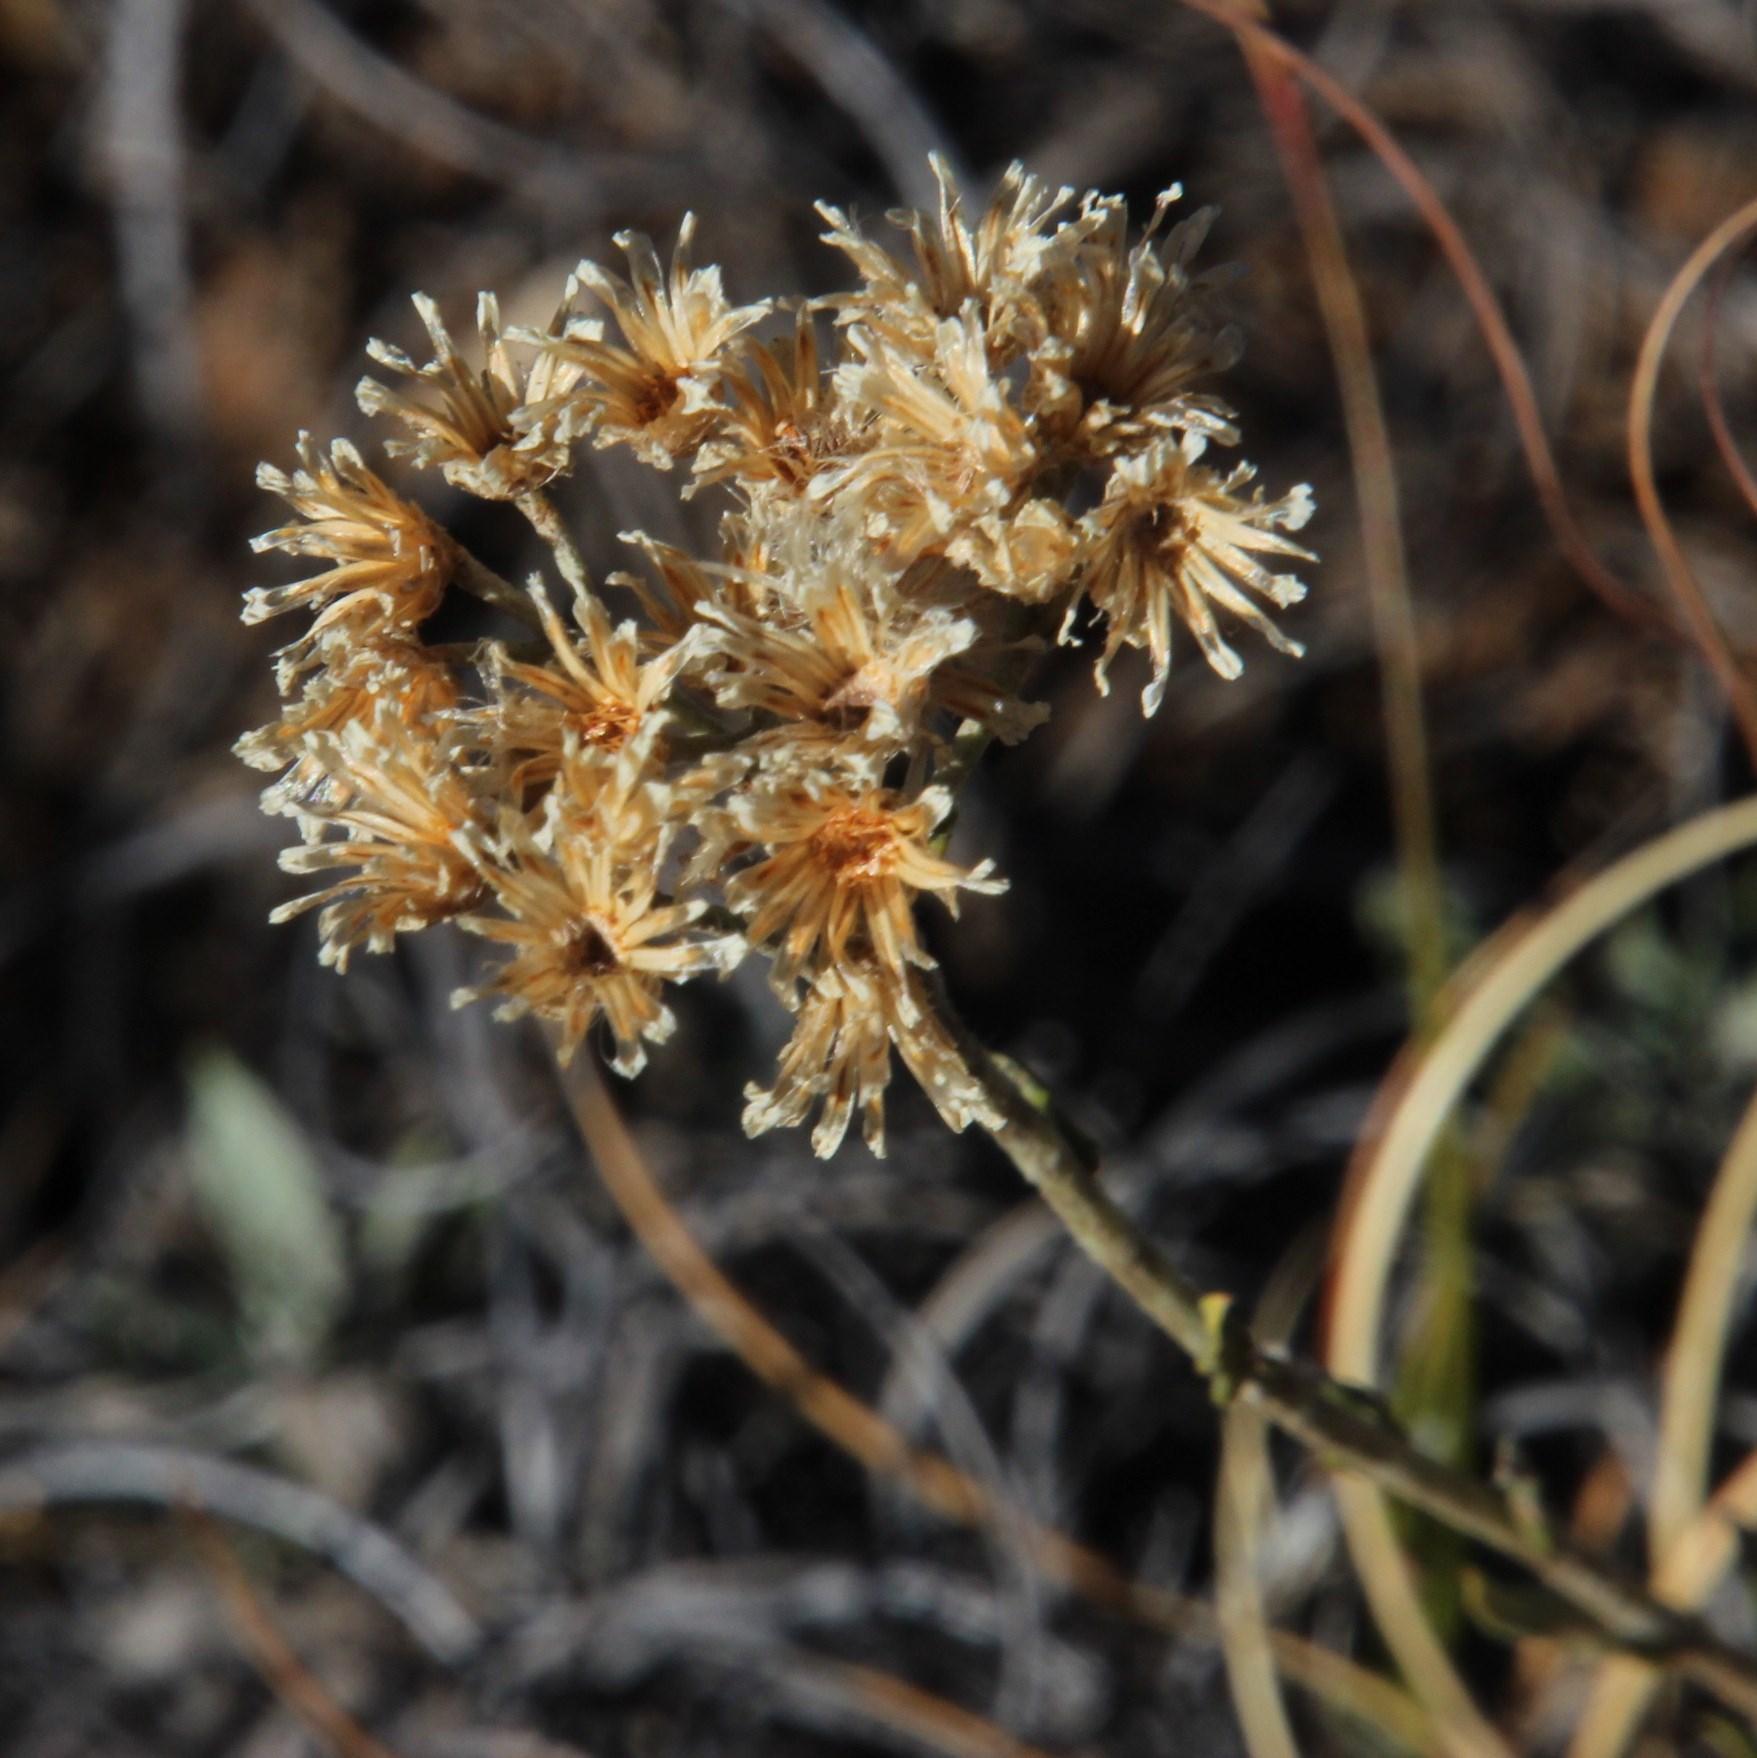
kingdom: Plantae
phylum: Tracheophyta
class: Magnoliopsida
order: Asterales
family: Asteraceae
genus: Helichrysum
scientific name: Helichrysum rugulosum
